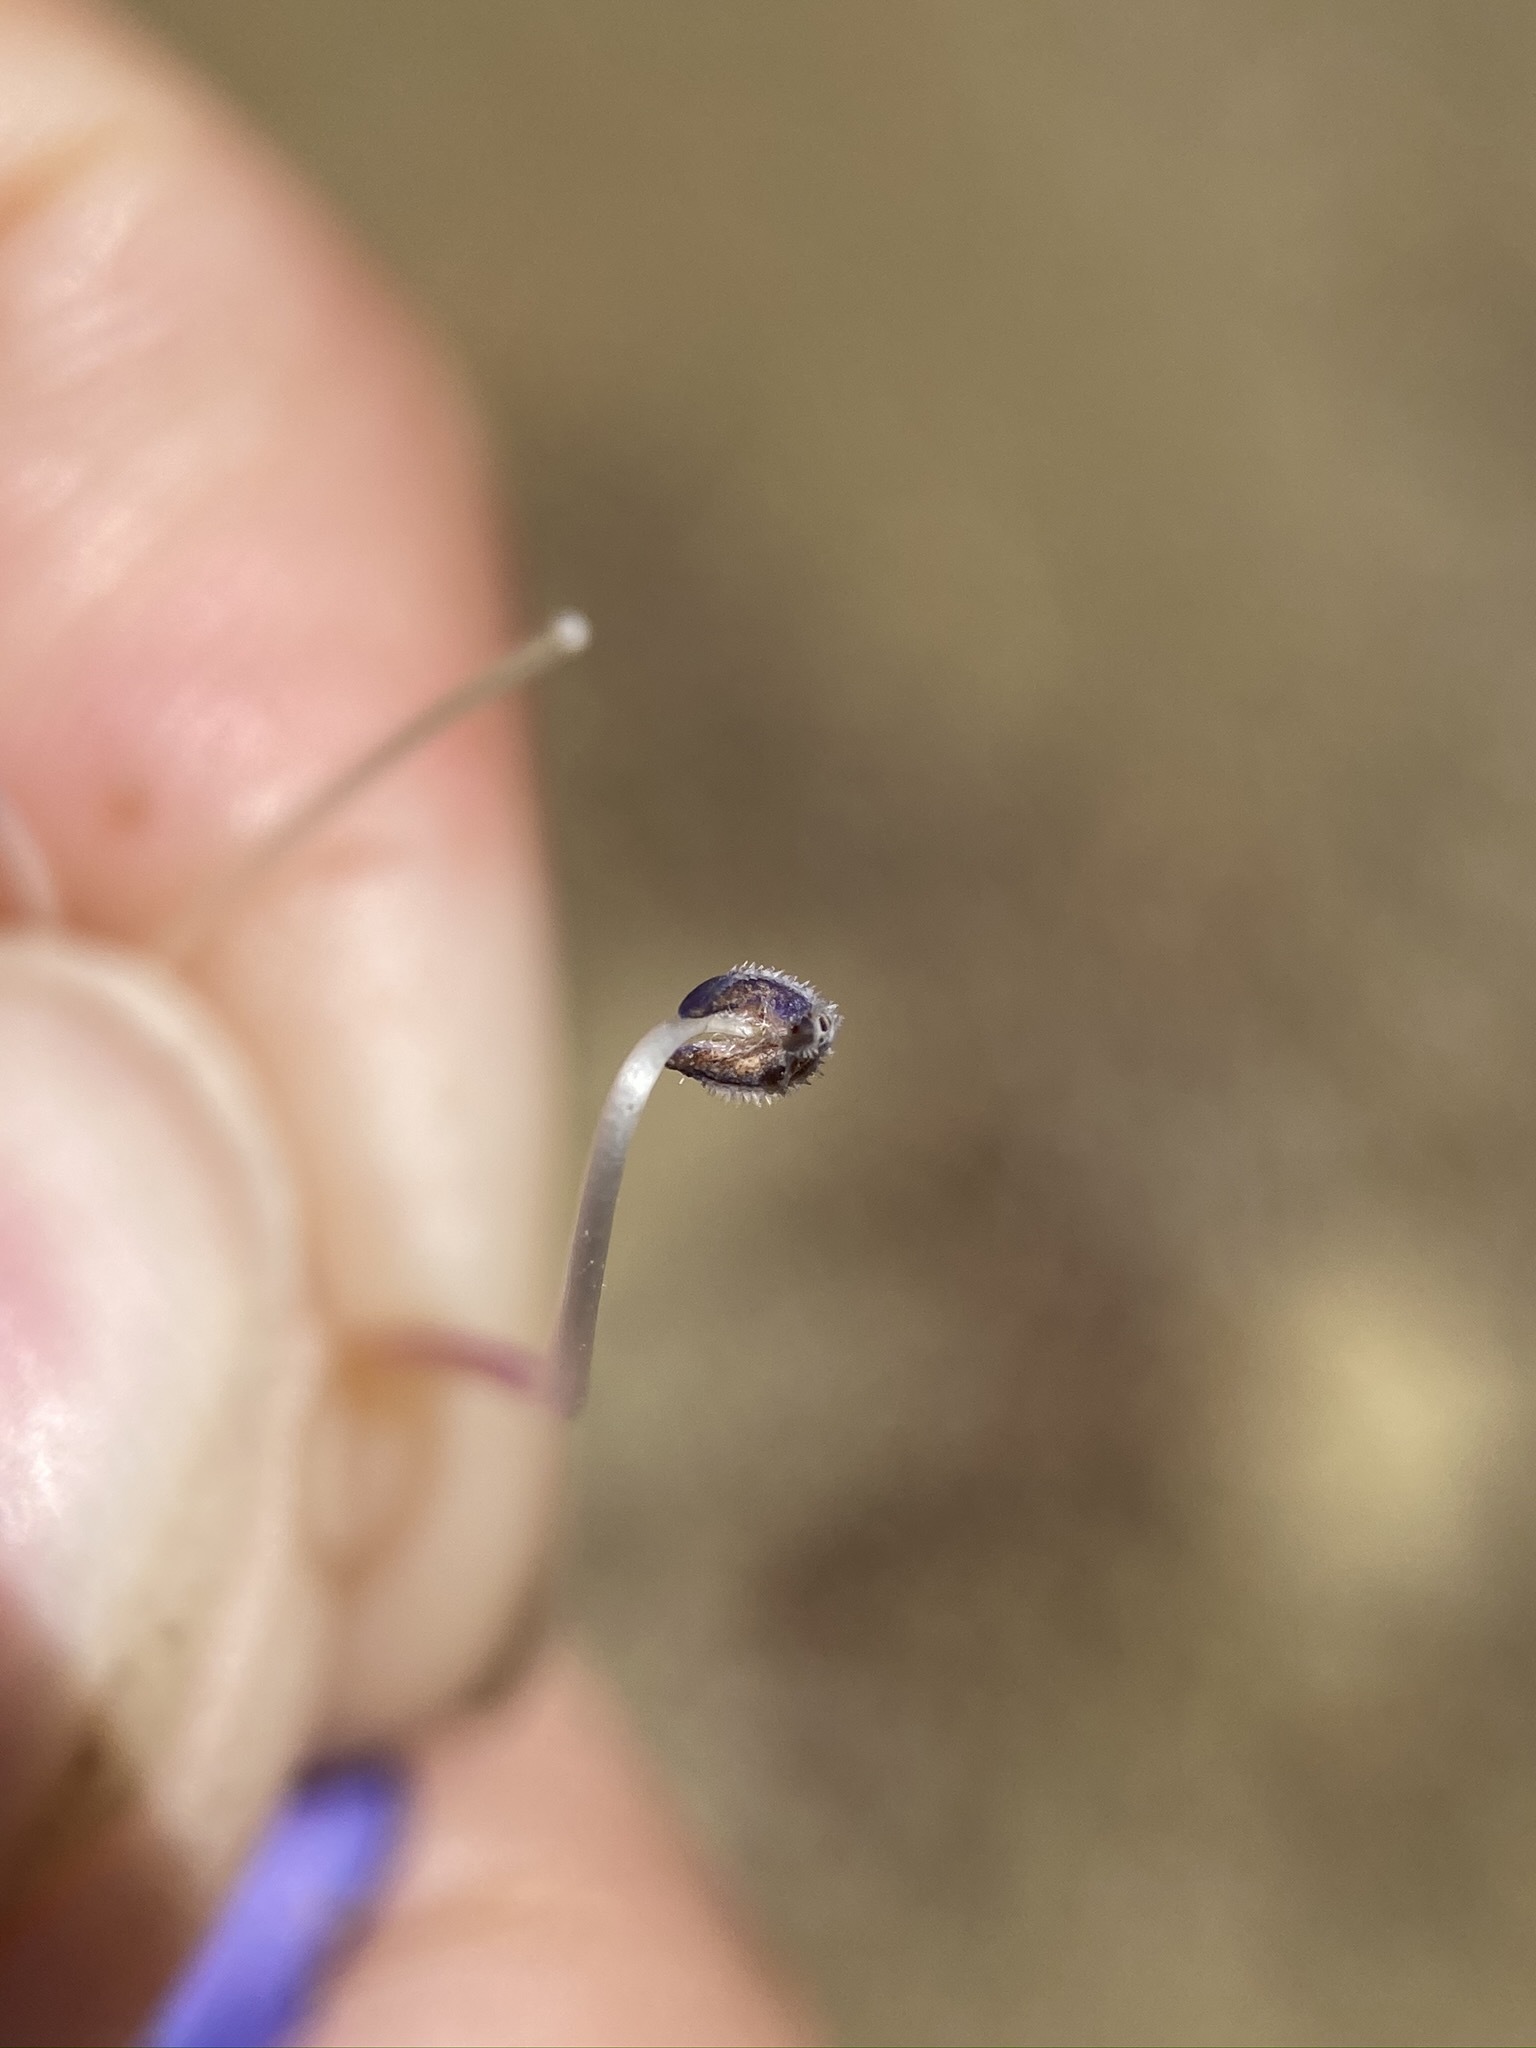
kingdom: Plantae
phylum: Tracheophyta
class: Magnoliopsida
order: Lamiales
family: Plantaginaceae
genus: Penstemon
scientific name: Penstemon heterophyllus
